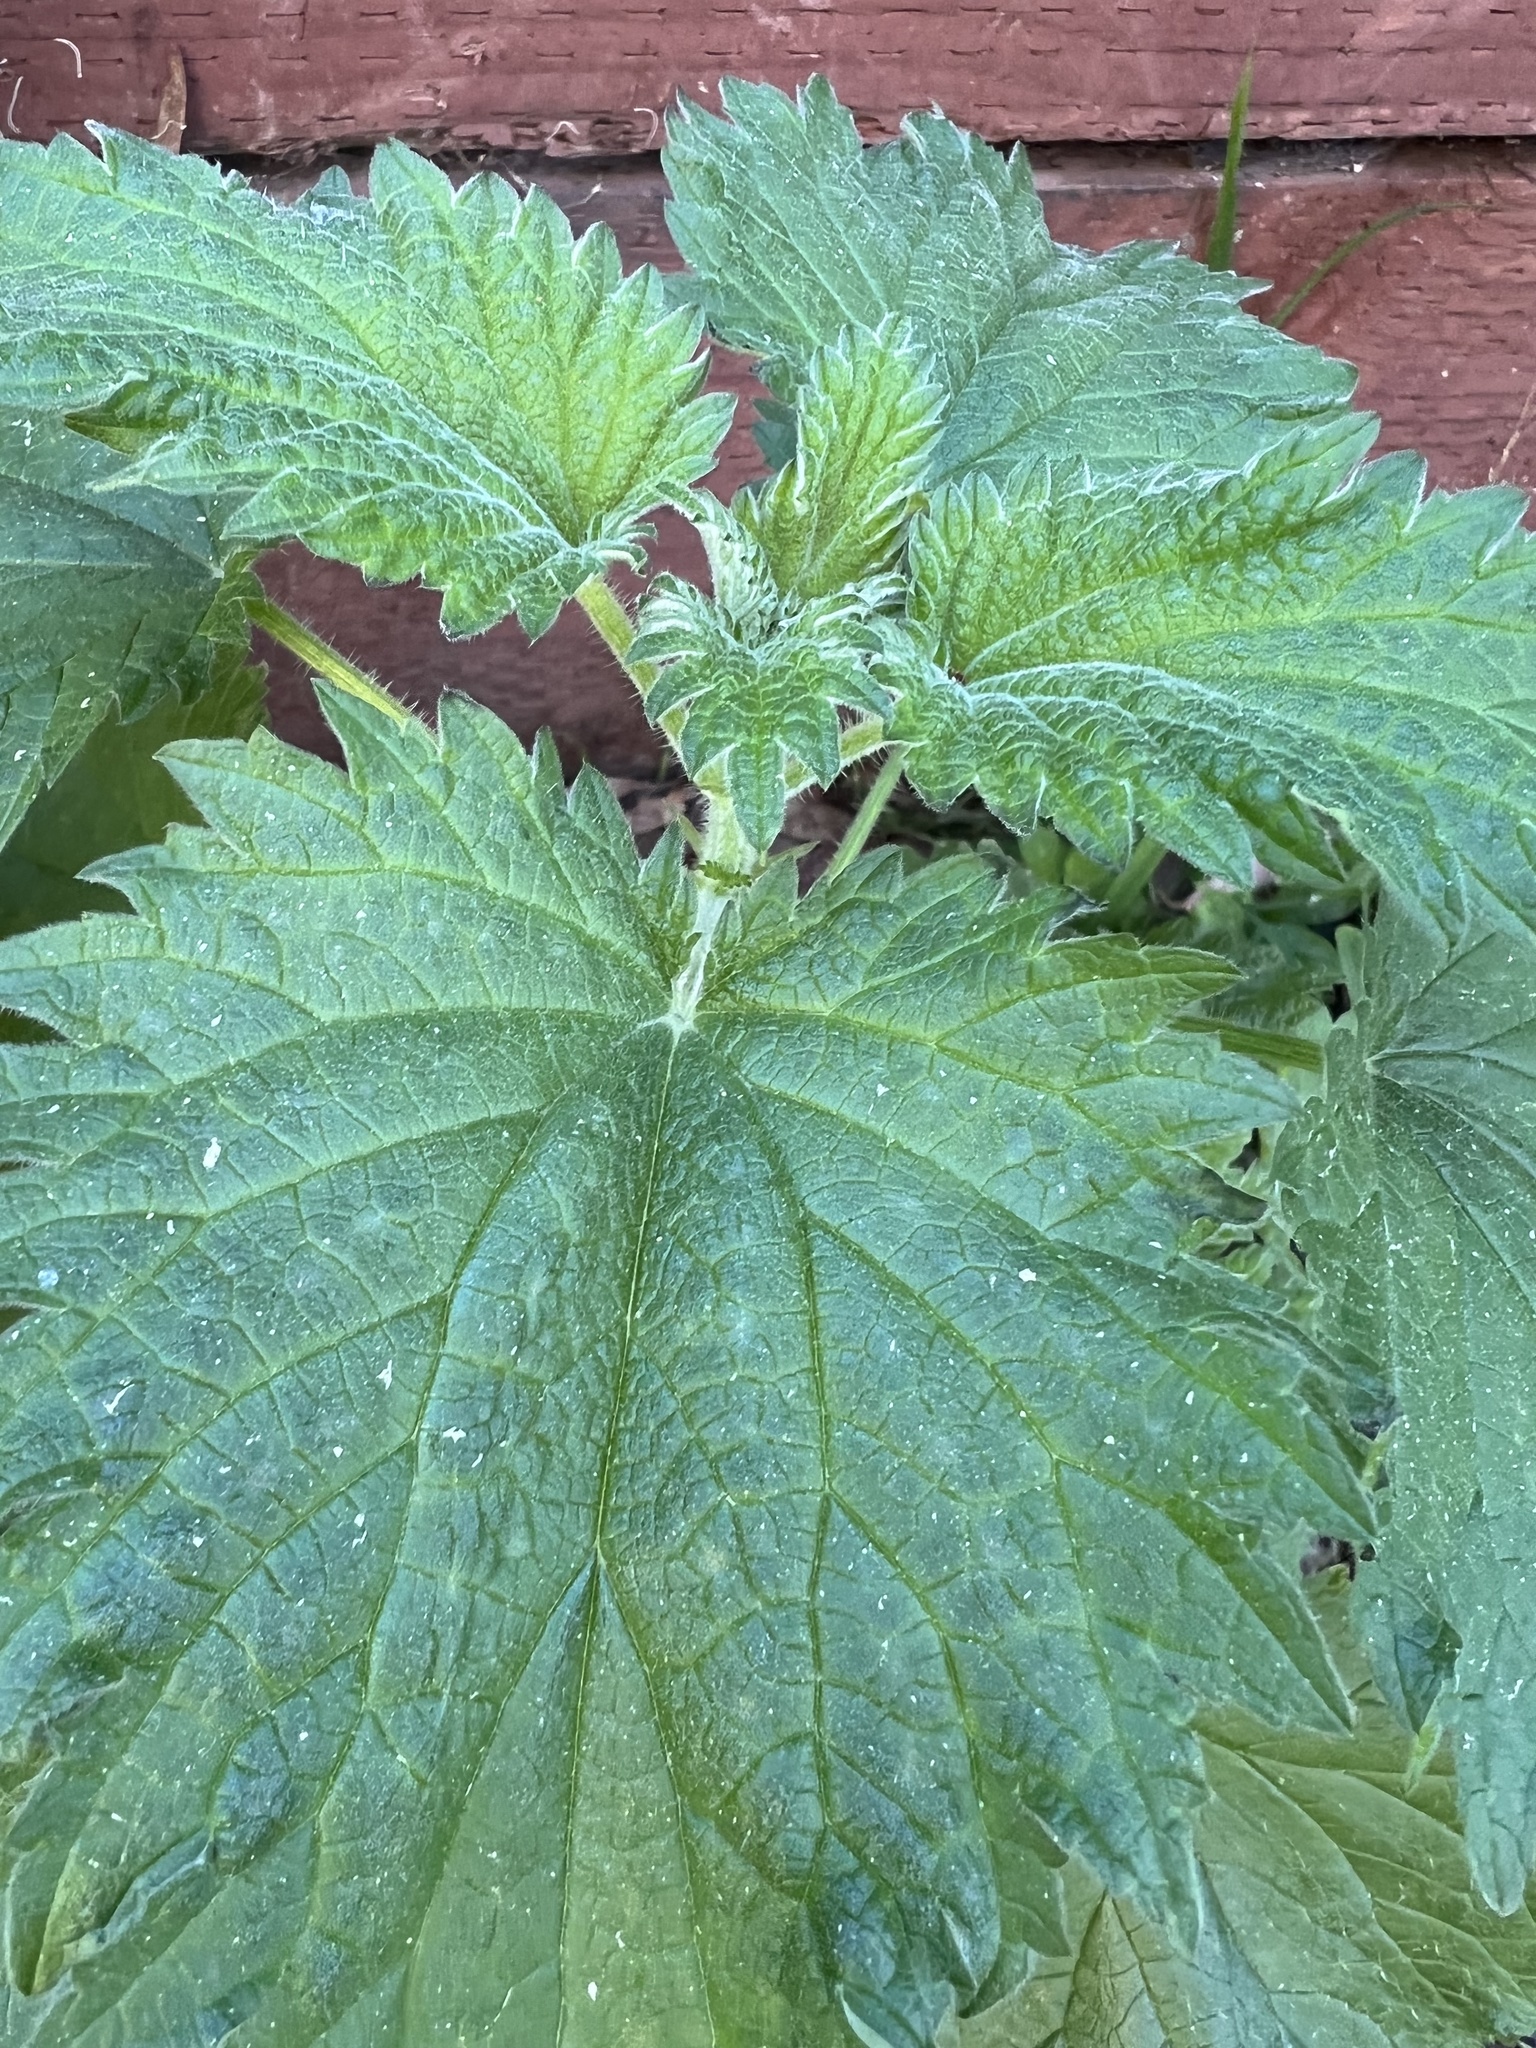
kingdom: Plantae
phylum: Tracheophyta
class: Magnoliopsida
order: Rosales
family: Urticaceae
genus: Urtica
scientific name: Urtica dioica
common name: Common nettle
